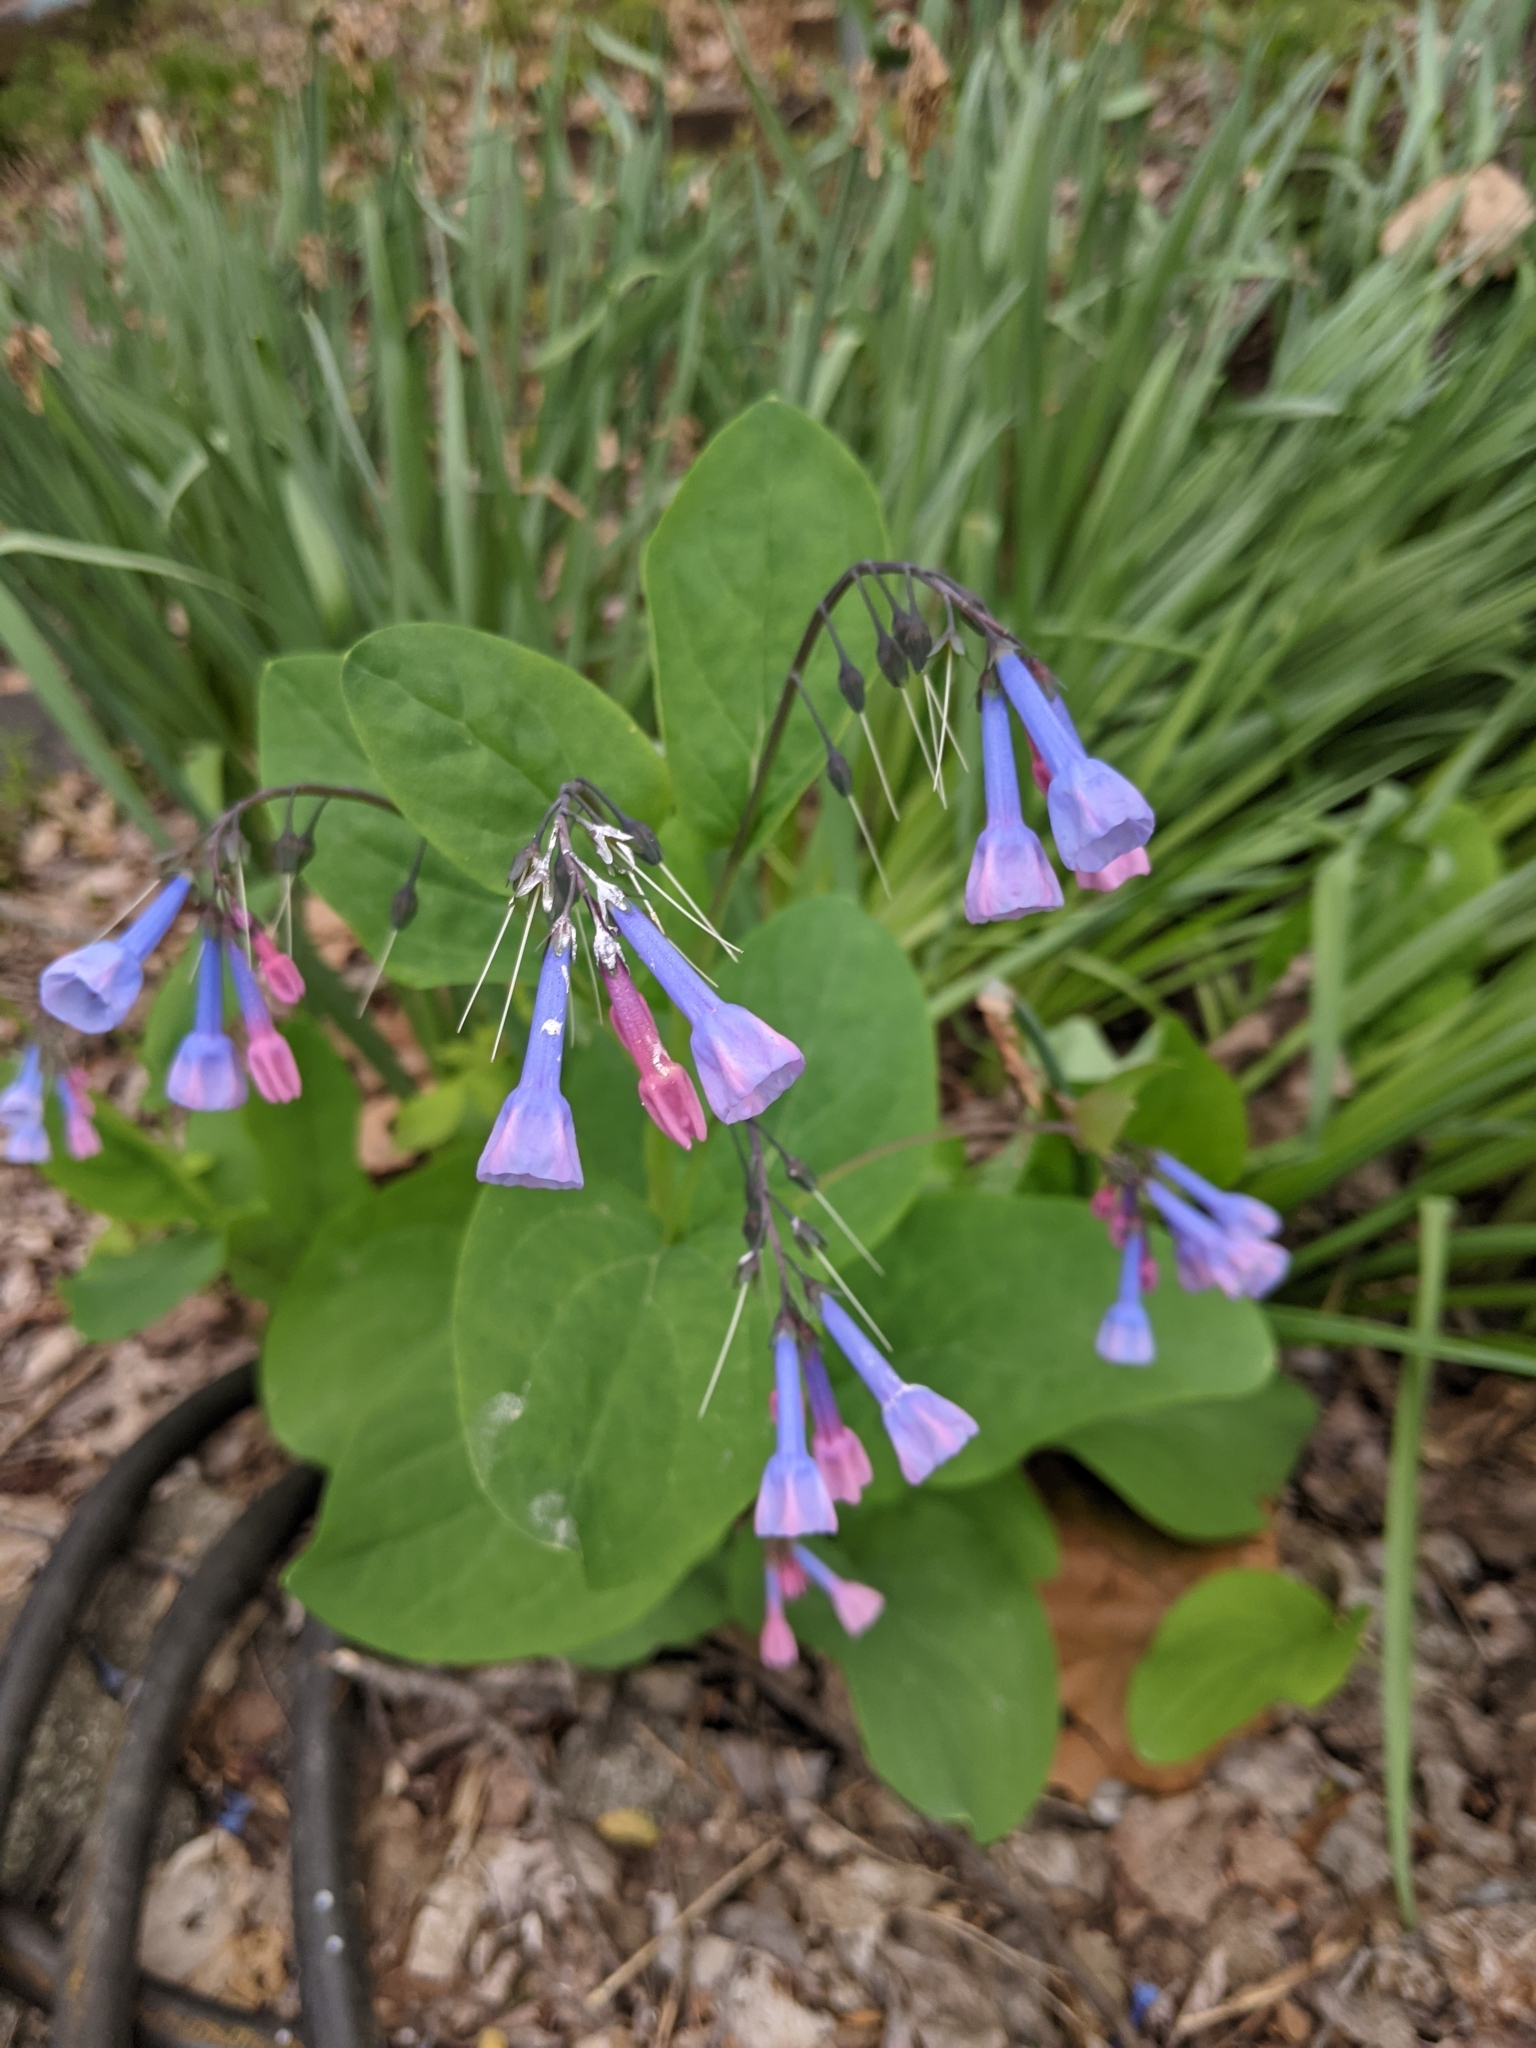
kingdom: Plantae
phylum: Tracheophyta
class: Magnoliopsida
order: Boraginales
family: Boraginaceae
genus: Mertensia
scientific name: Mertensia virginica
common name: Virginia bluebells
